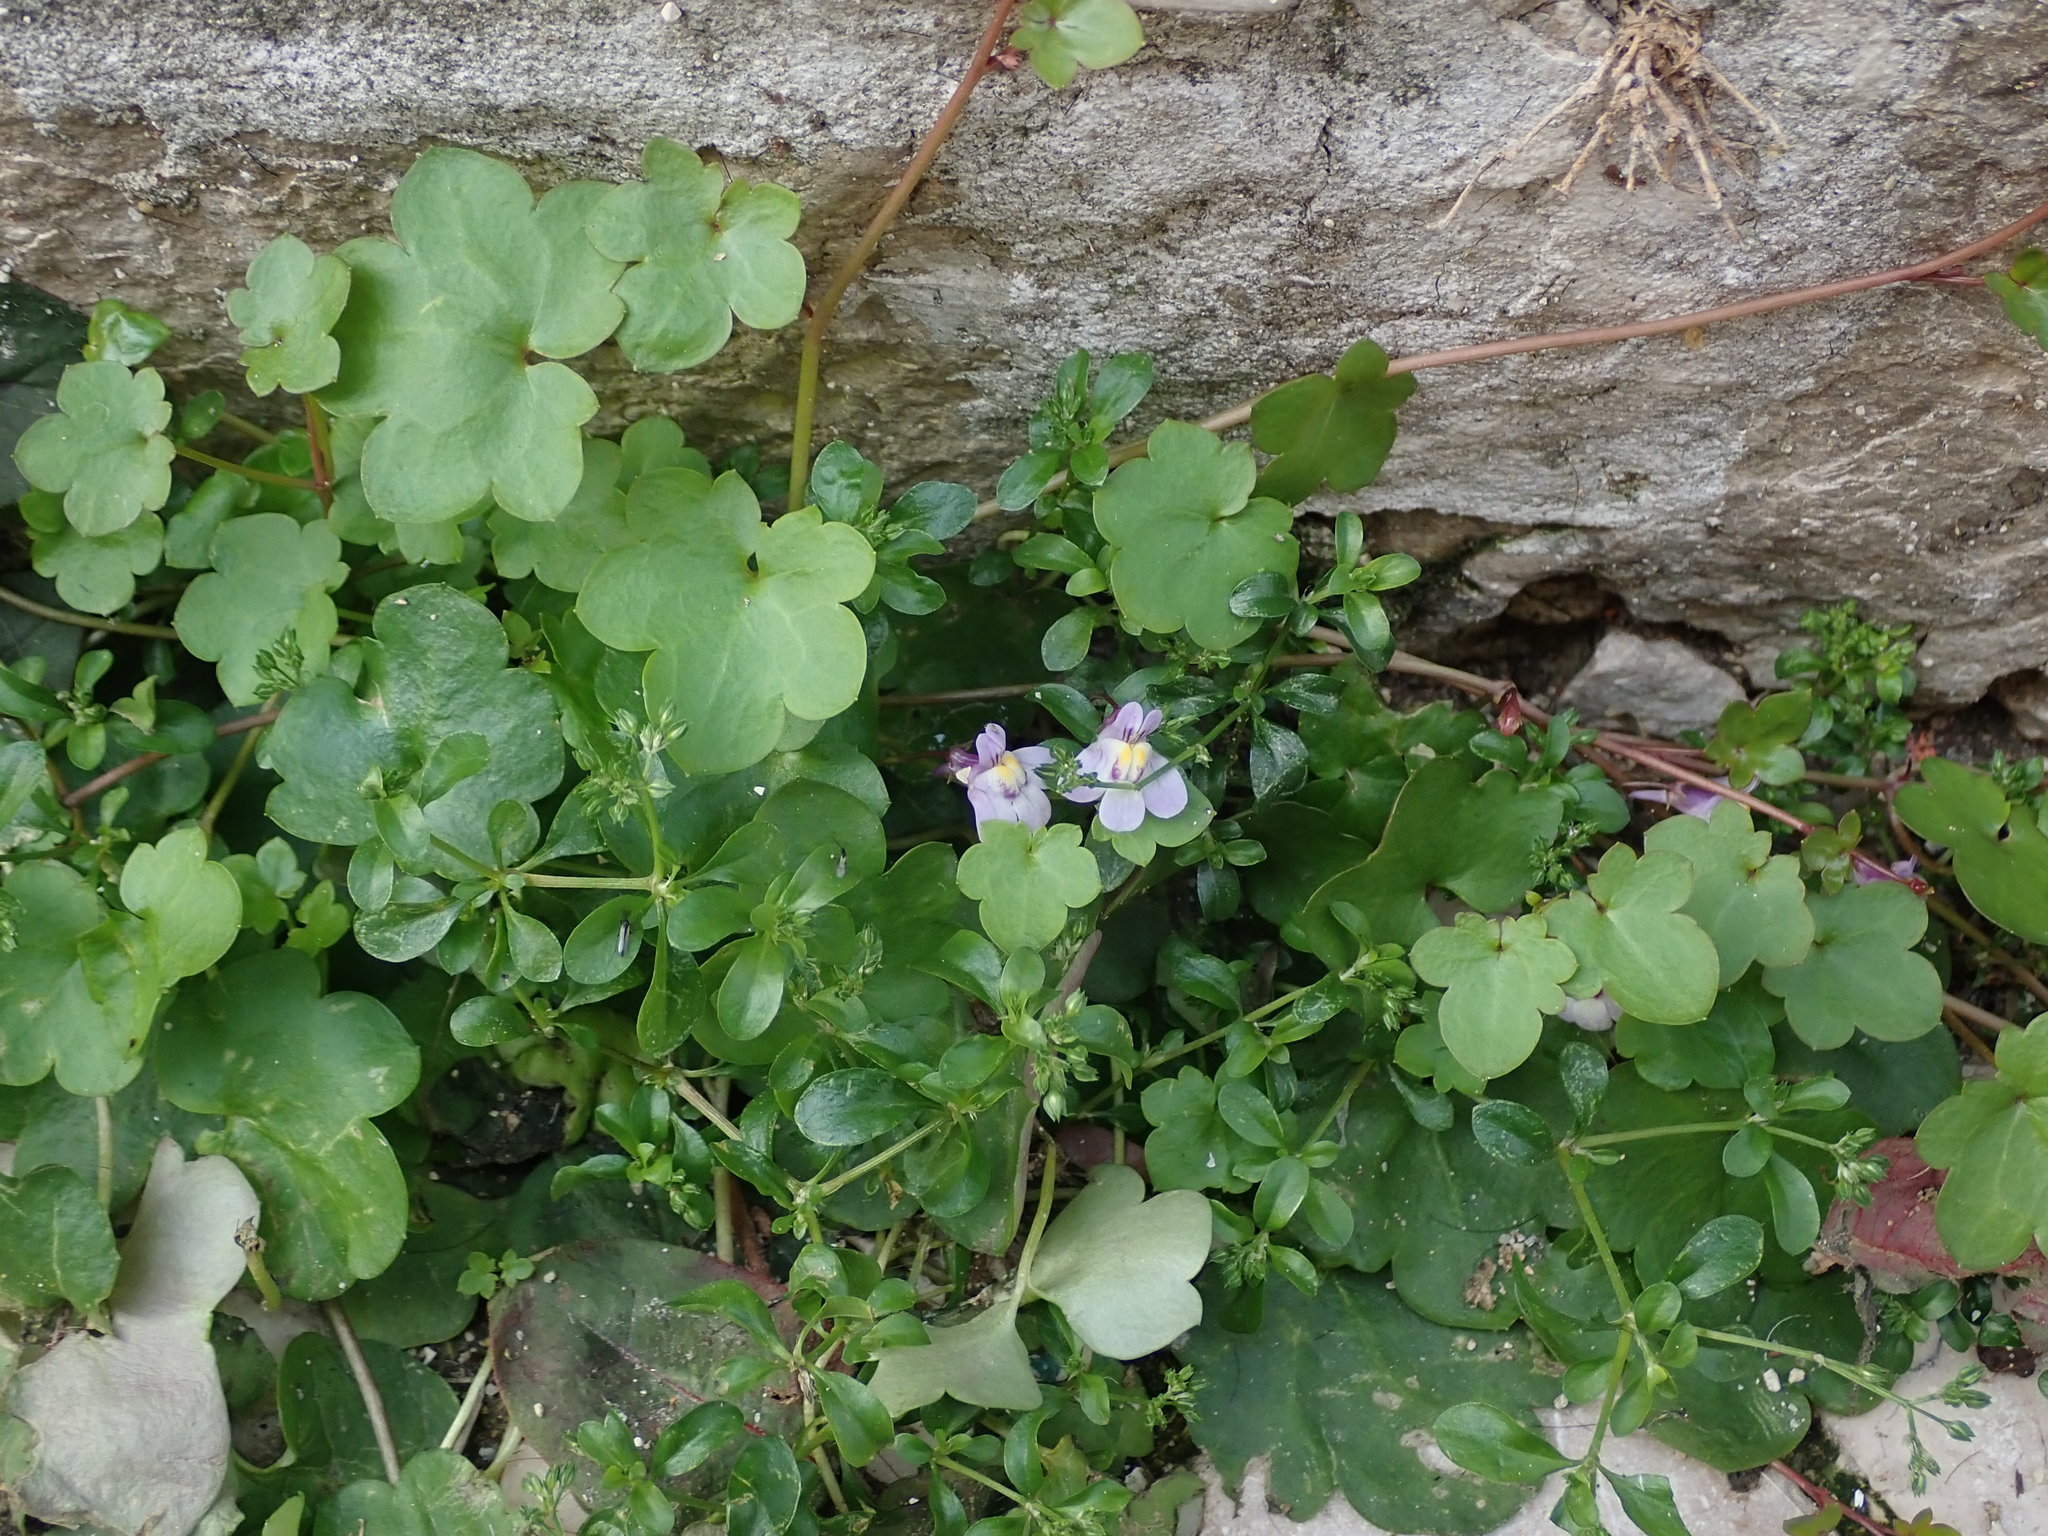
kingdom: Plantae
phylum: Tracheophyta
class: Magnoliopsida
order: Lamiales
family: Plantaginaceae
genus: Cymbalaria
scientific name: Cymbalaria muralis
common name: Ivy-leaved toadflax
